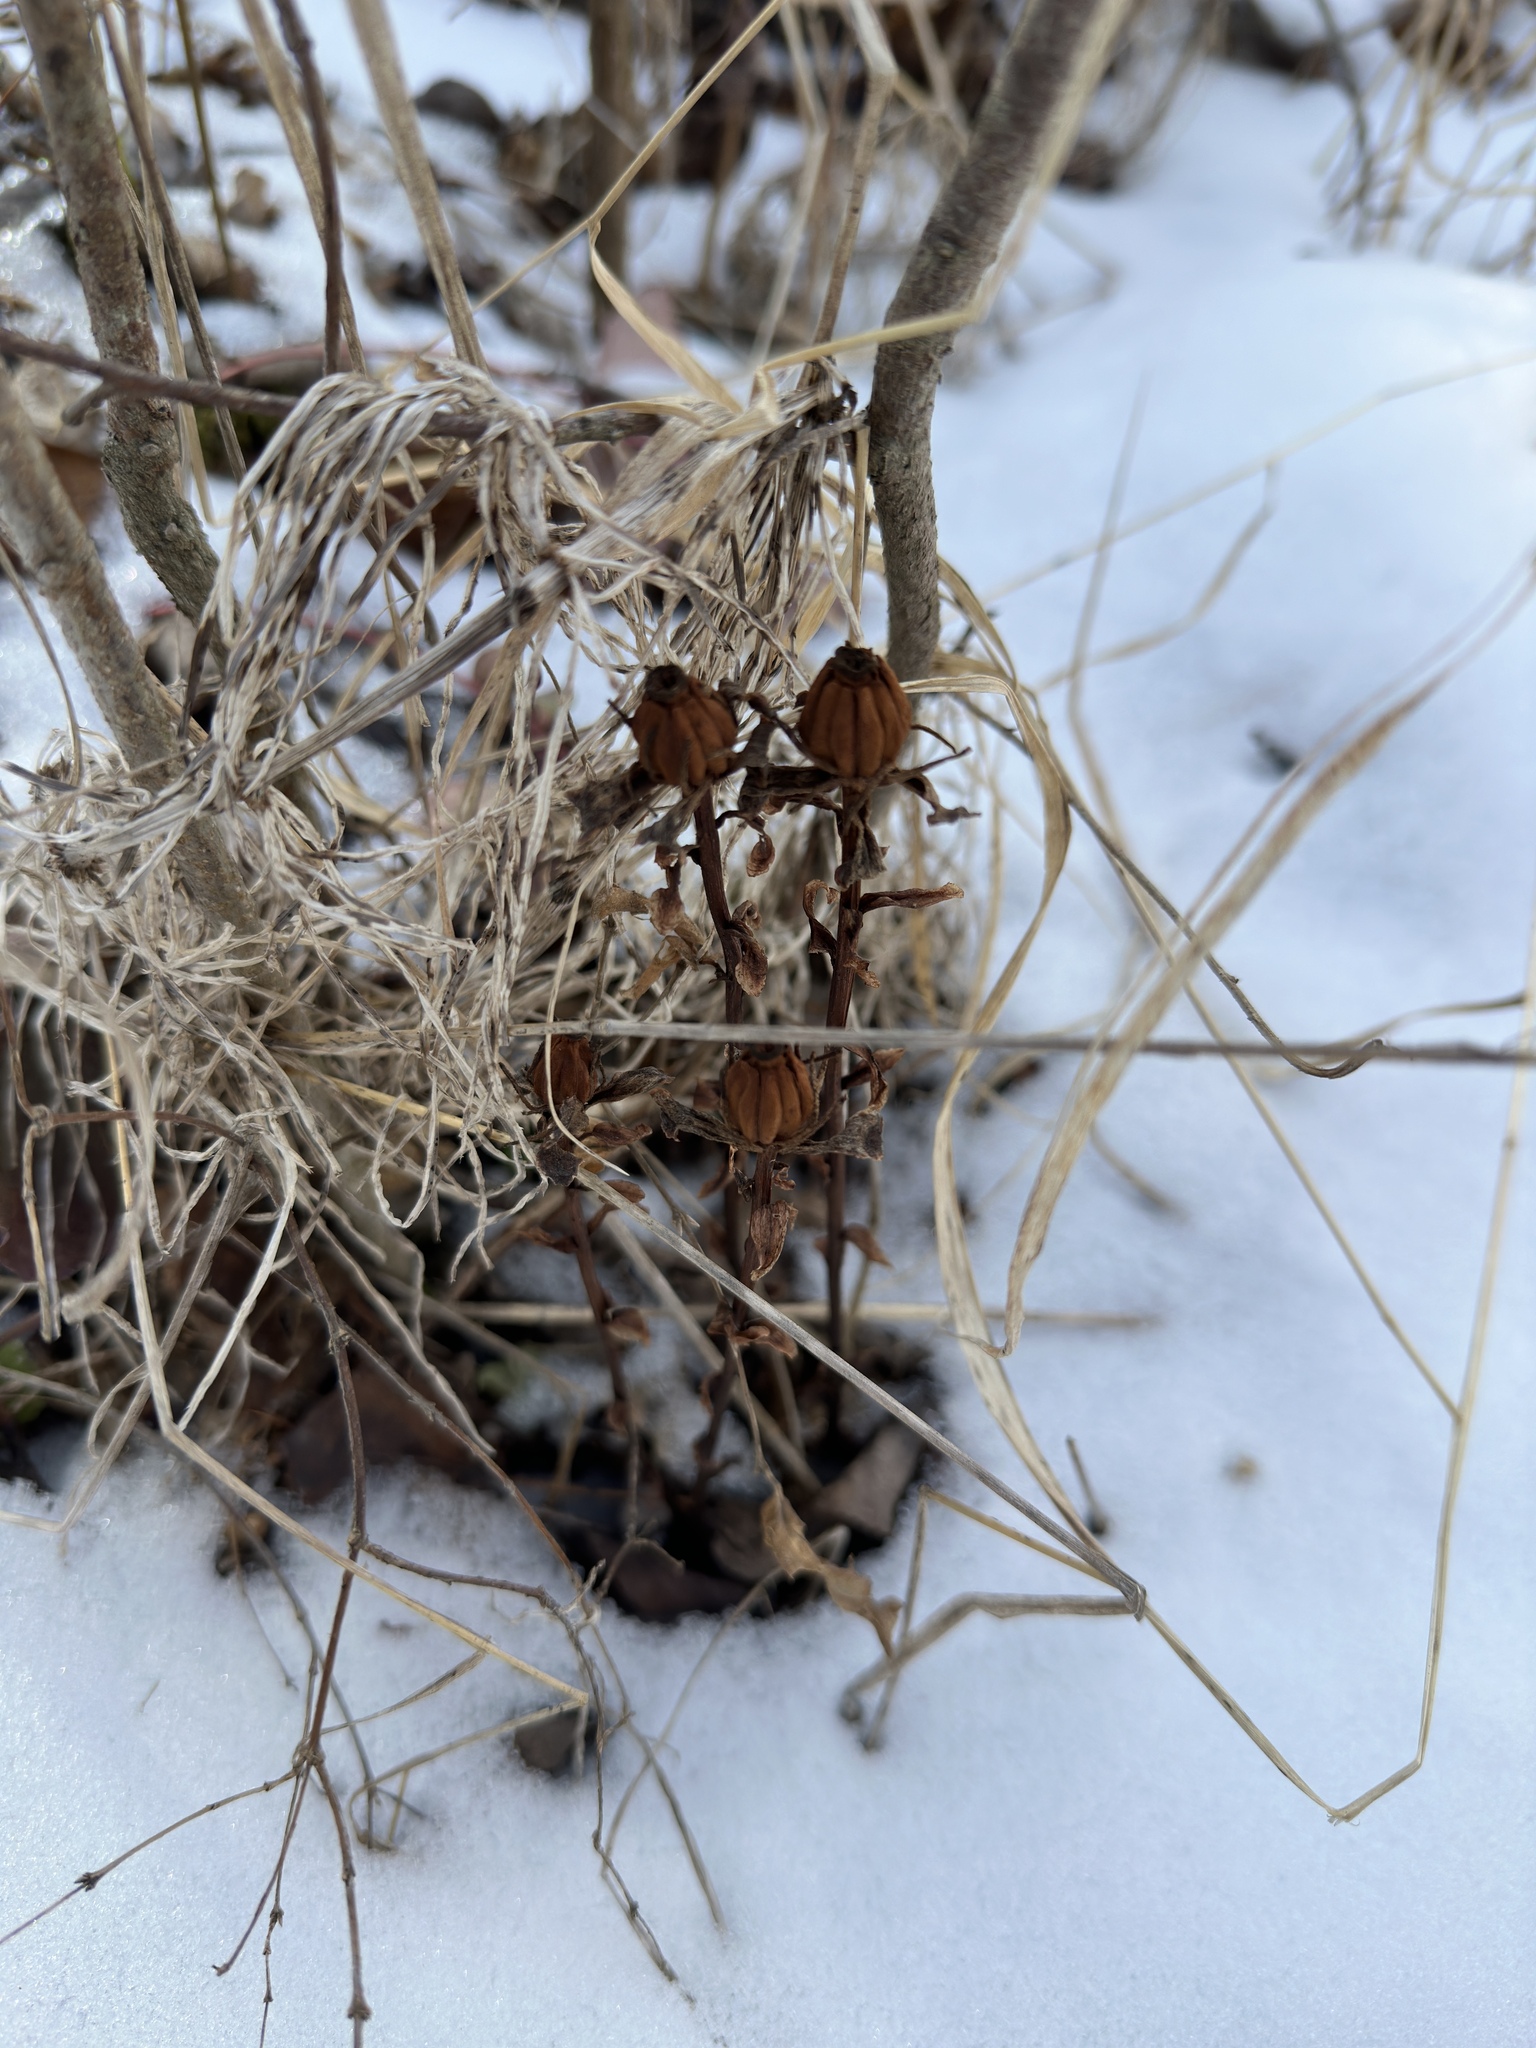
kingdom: Plantae
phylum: Tracheophyta
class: Magnoliopsida
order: Ericales
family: Ericaceae
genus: Monotropa
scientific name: Monotropa uniflora
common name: Convulsion root
